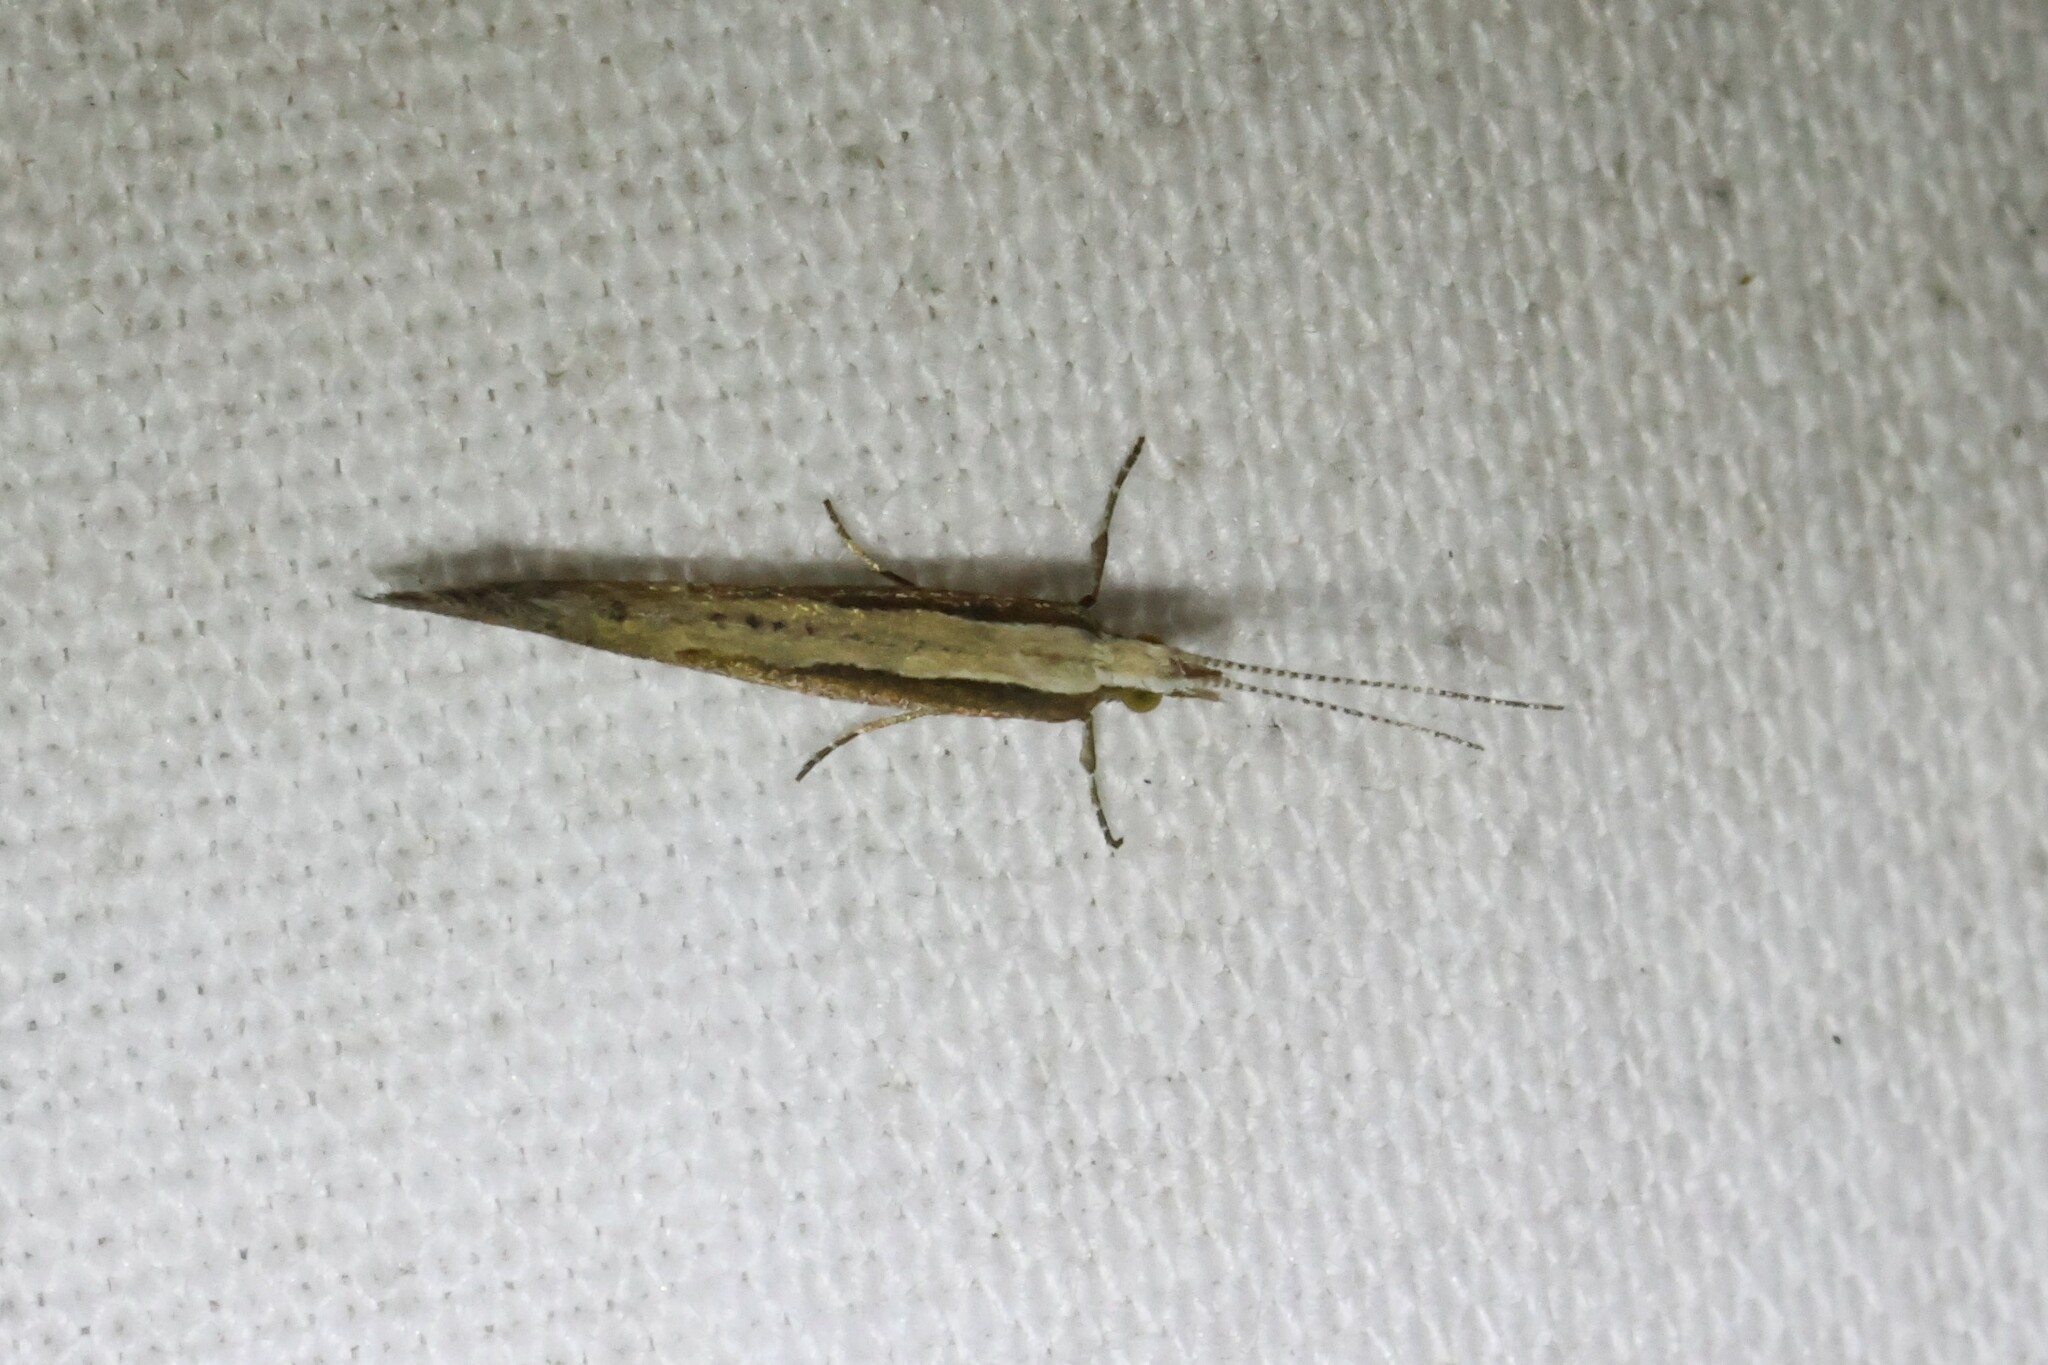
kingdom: Animalia
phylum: Arthropoda
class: Insecta
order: Lepidoptera
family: Plutellidae
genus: Plutella
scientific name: Plutella xylostella
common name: Diamond-back moth
